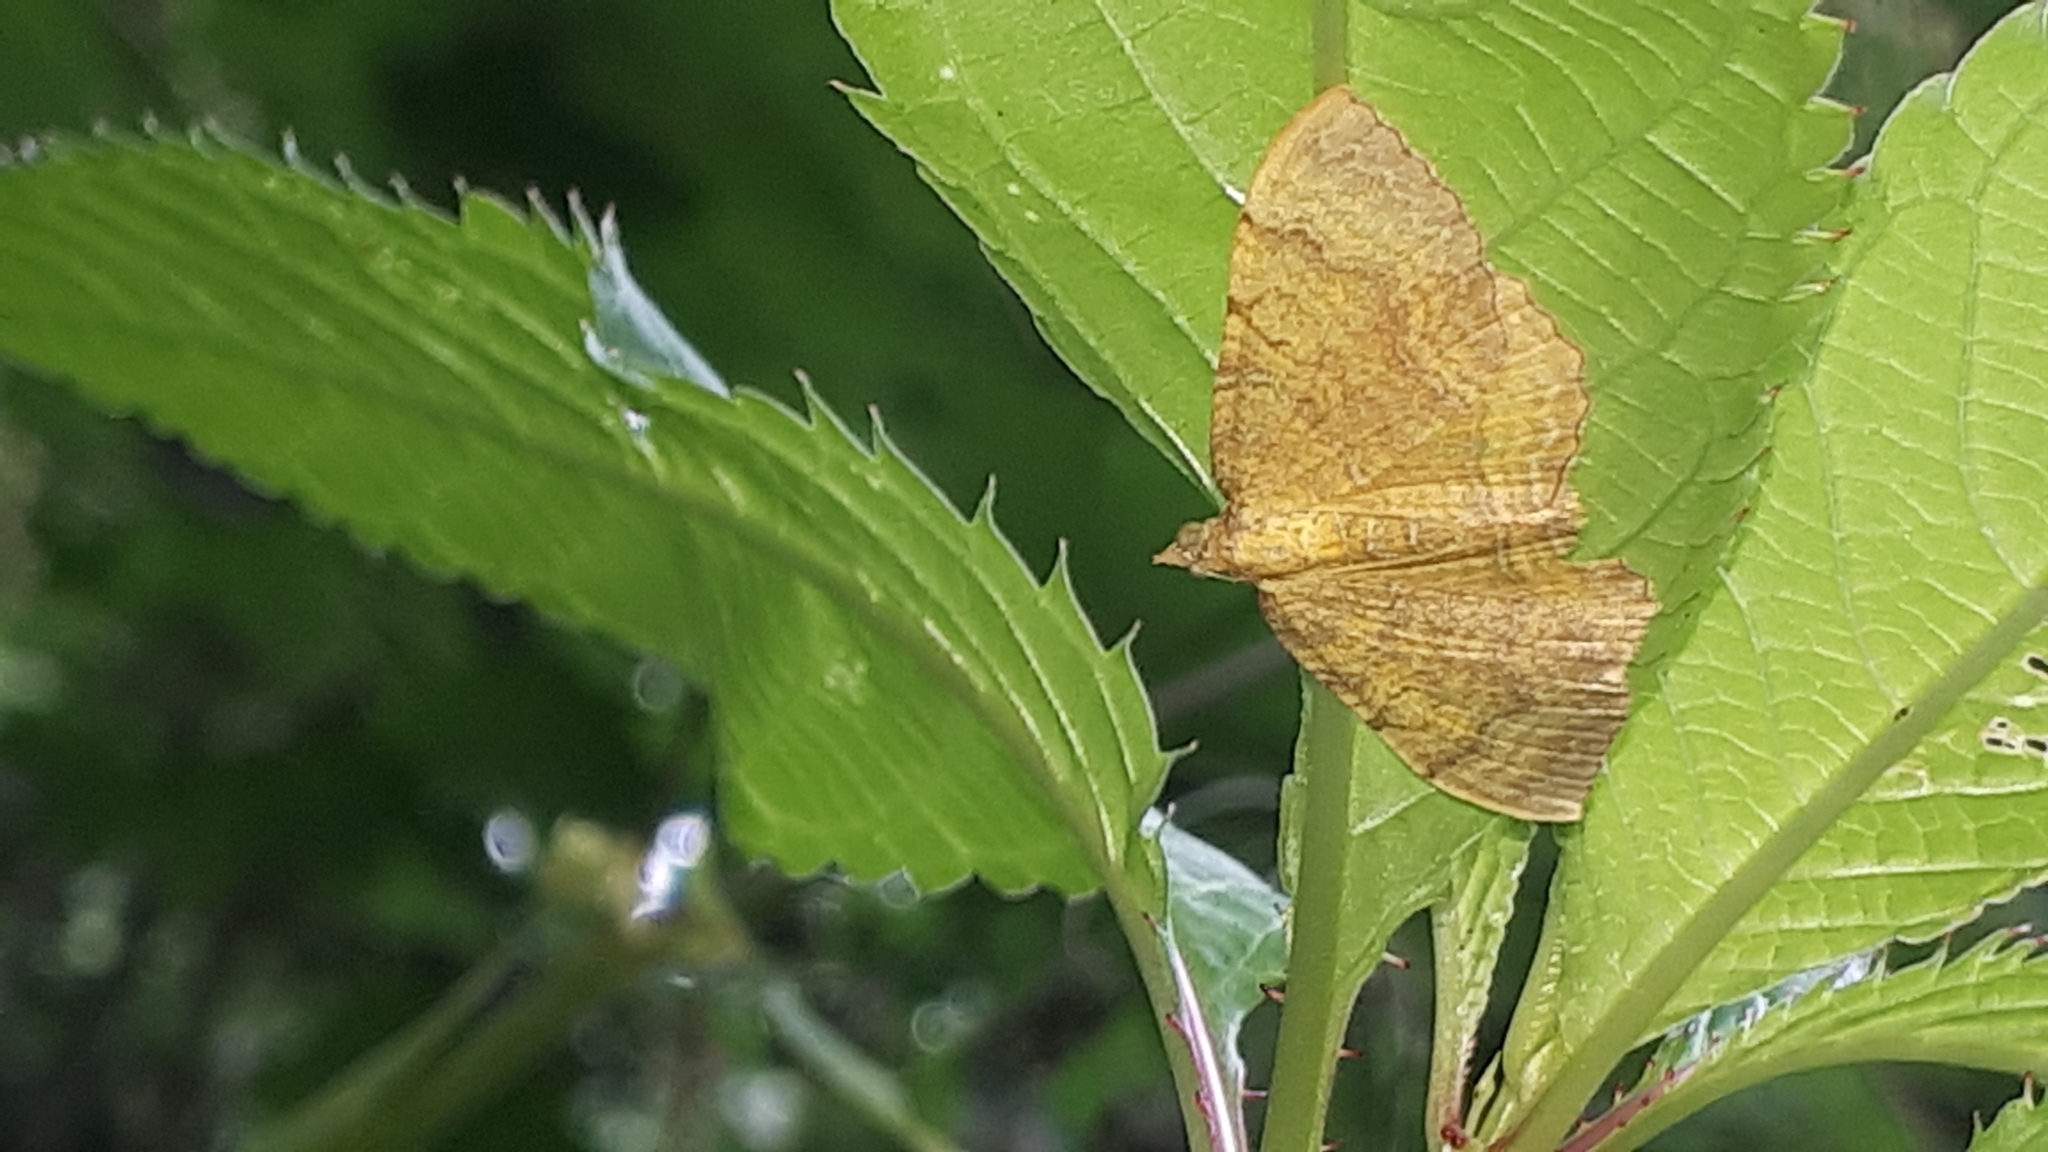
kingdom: Animalia
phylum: Arthropoda
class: Insecta
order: Lepidoptera
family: Geometridae
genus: Camptogramma
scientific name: Camptogramma bilineata
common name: Yellow shell
